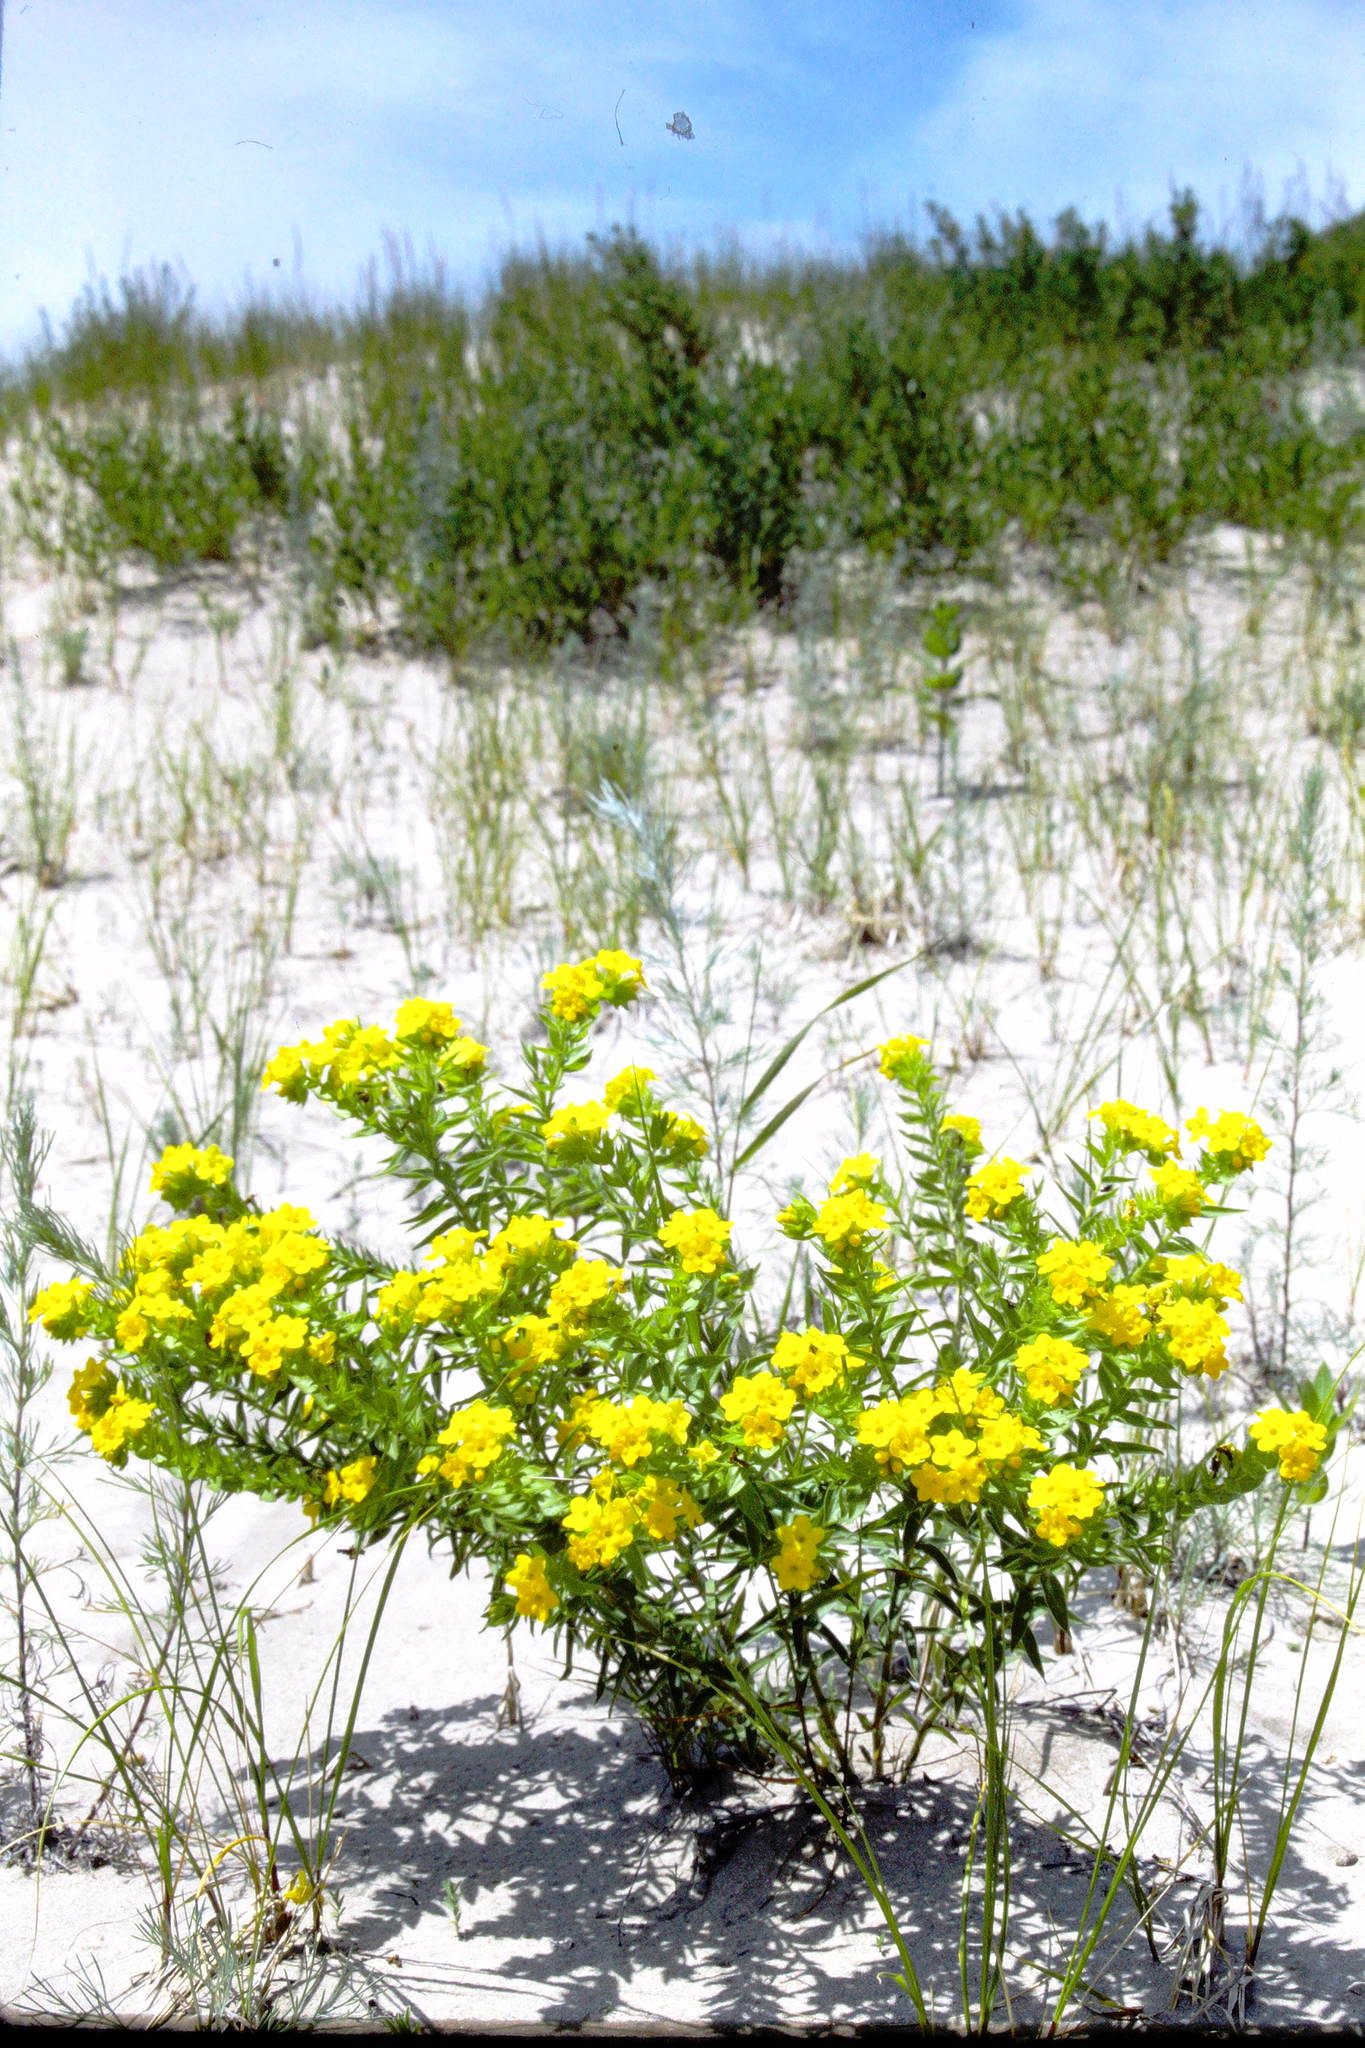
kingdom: Plantae
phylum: Tracheophyta
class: Magnoliopsida
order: Boraginales
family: Boraginaceae
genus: Lithospermum
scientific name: Lithospermum caroliniense
